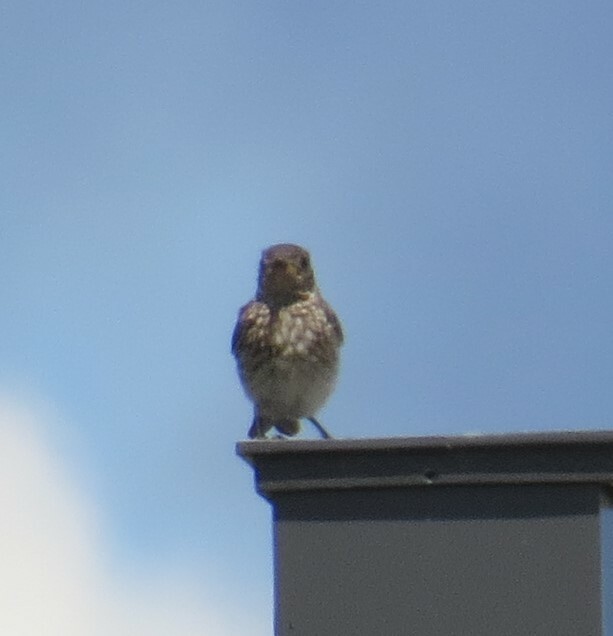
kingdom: Animalia
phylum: Chordata
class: Aves
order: Passeriformes
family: Turdidae
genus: Sialia
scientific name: Sialia sialis
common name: Eastern bluebird
